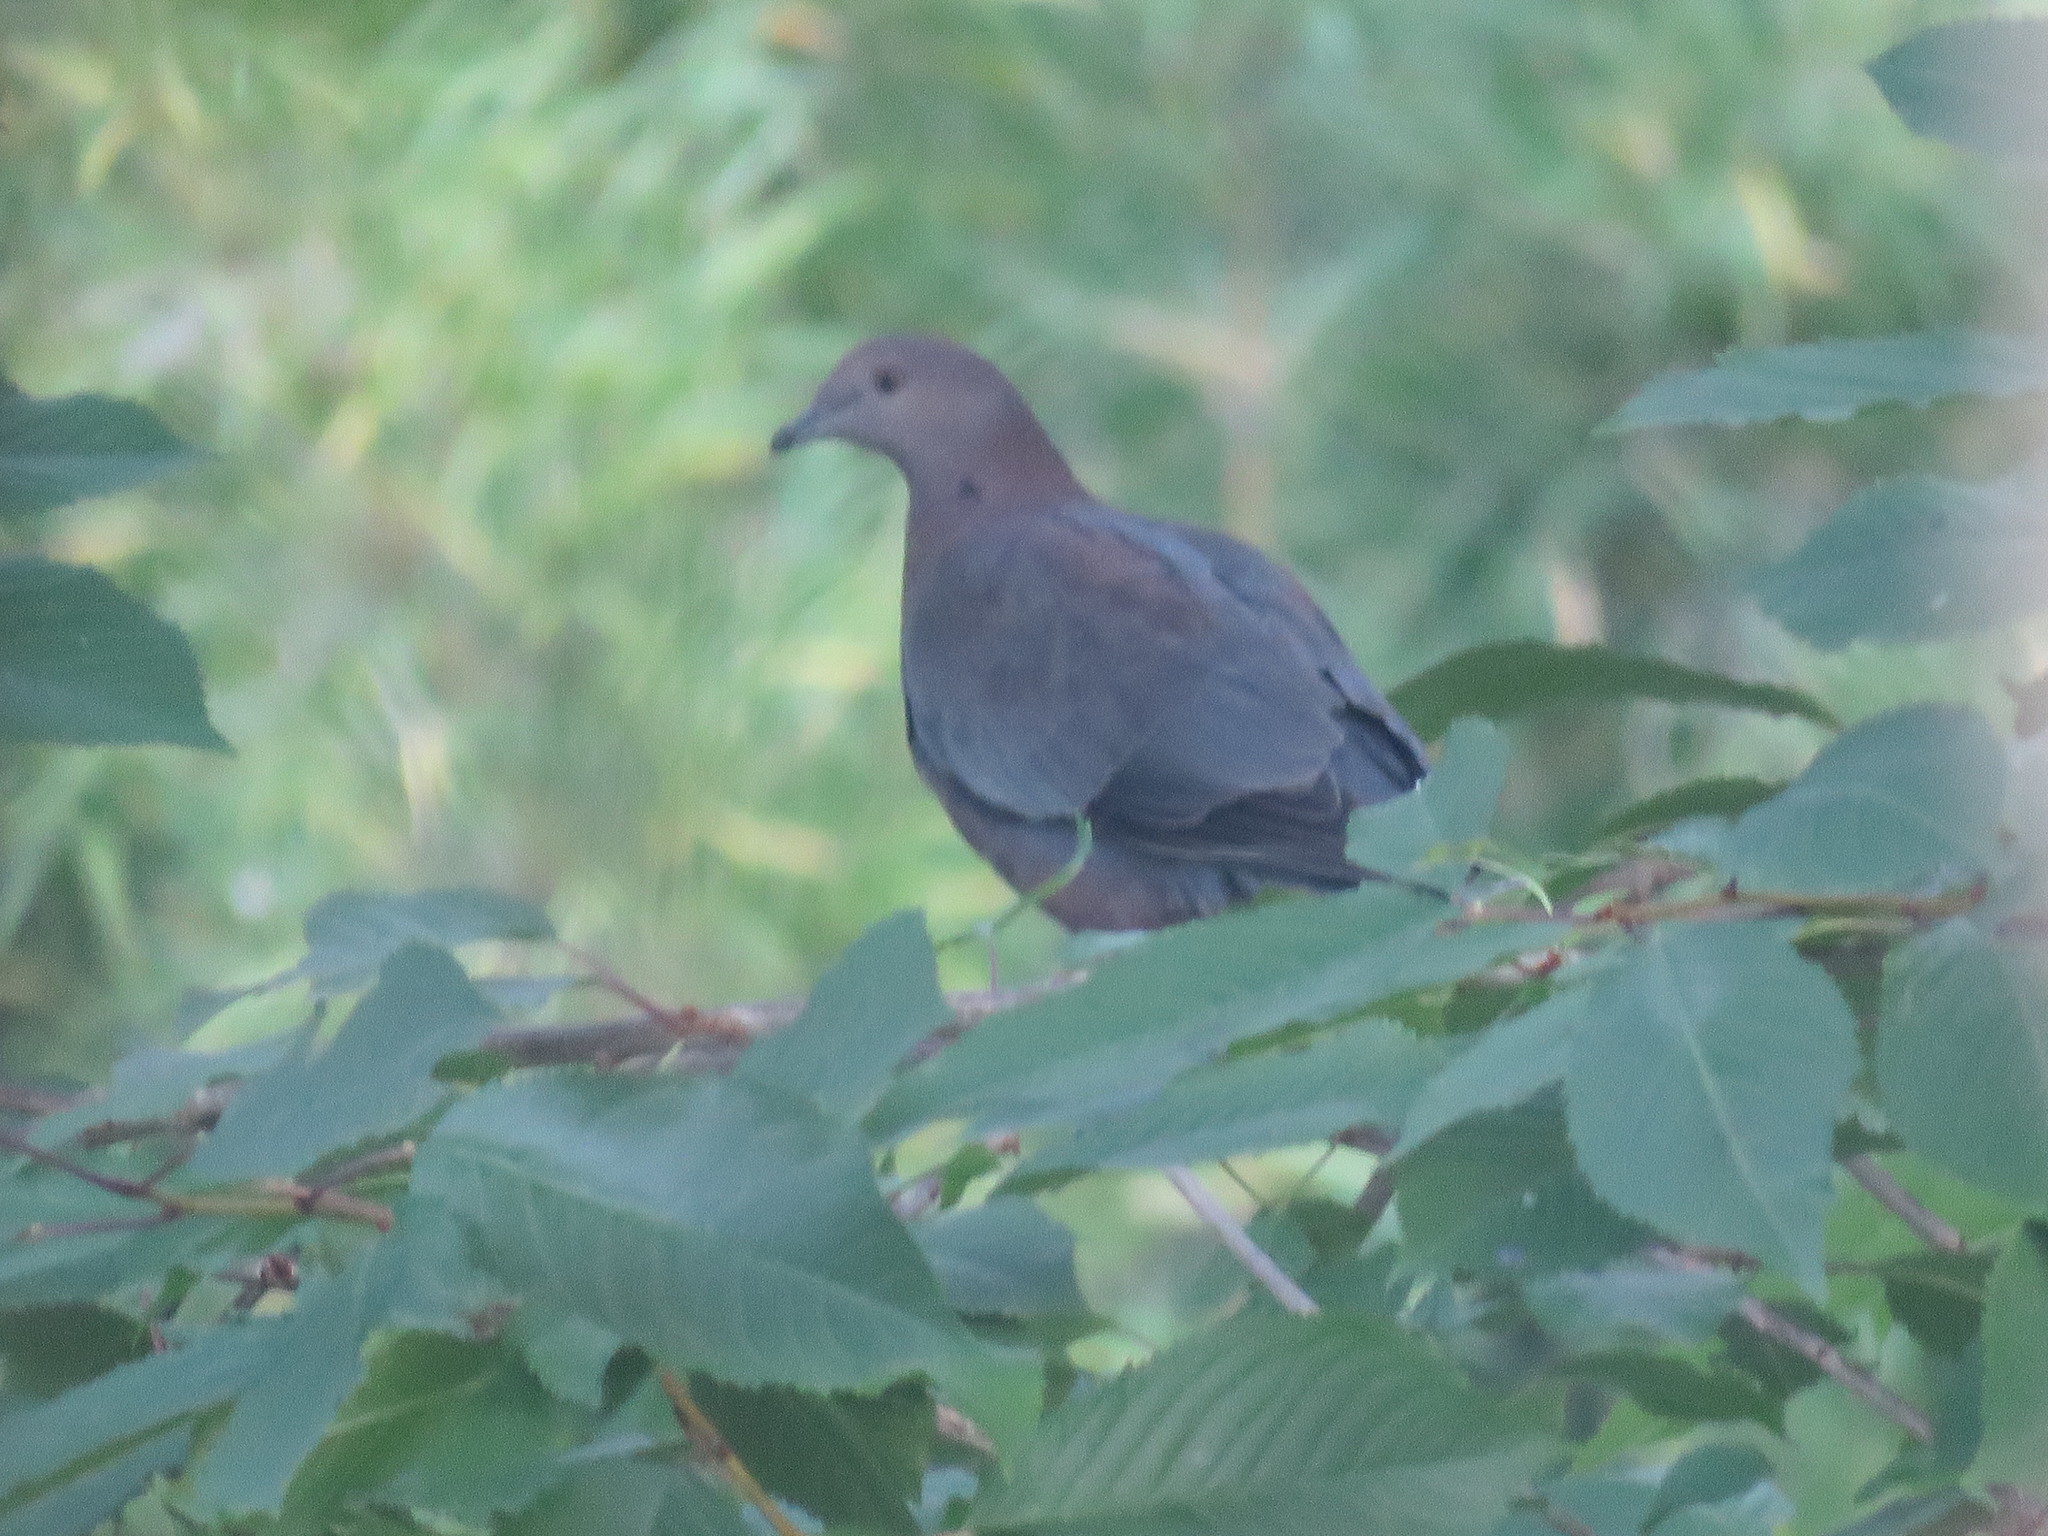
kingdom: Animalia
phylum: Chordata
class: Aves
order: Columbiformes
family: Columbidae
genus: Patagioenas
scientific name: Patagioenas araucana
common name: Chilean pigeon
